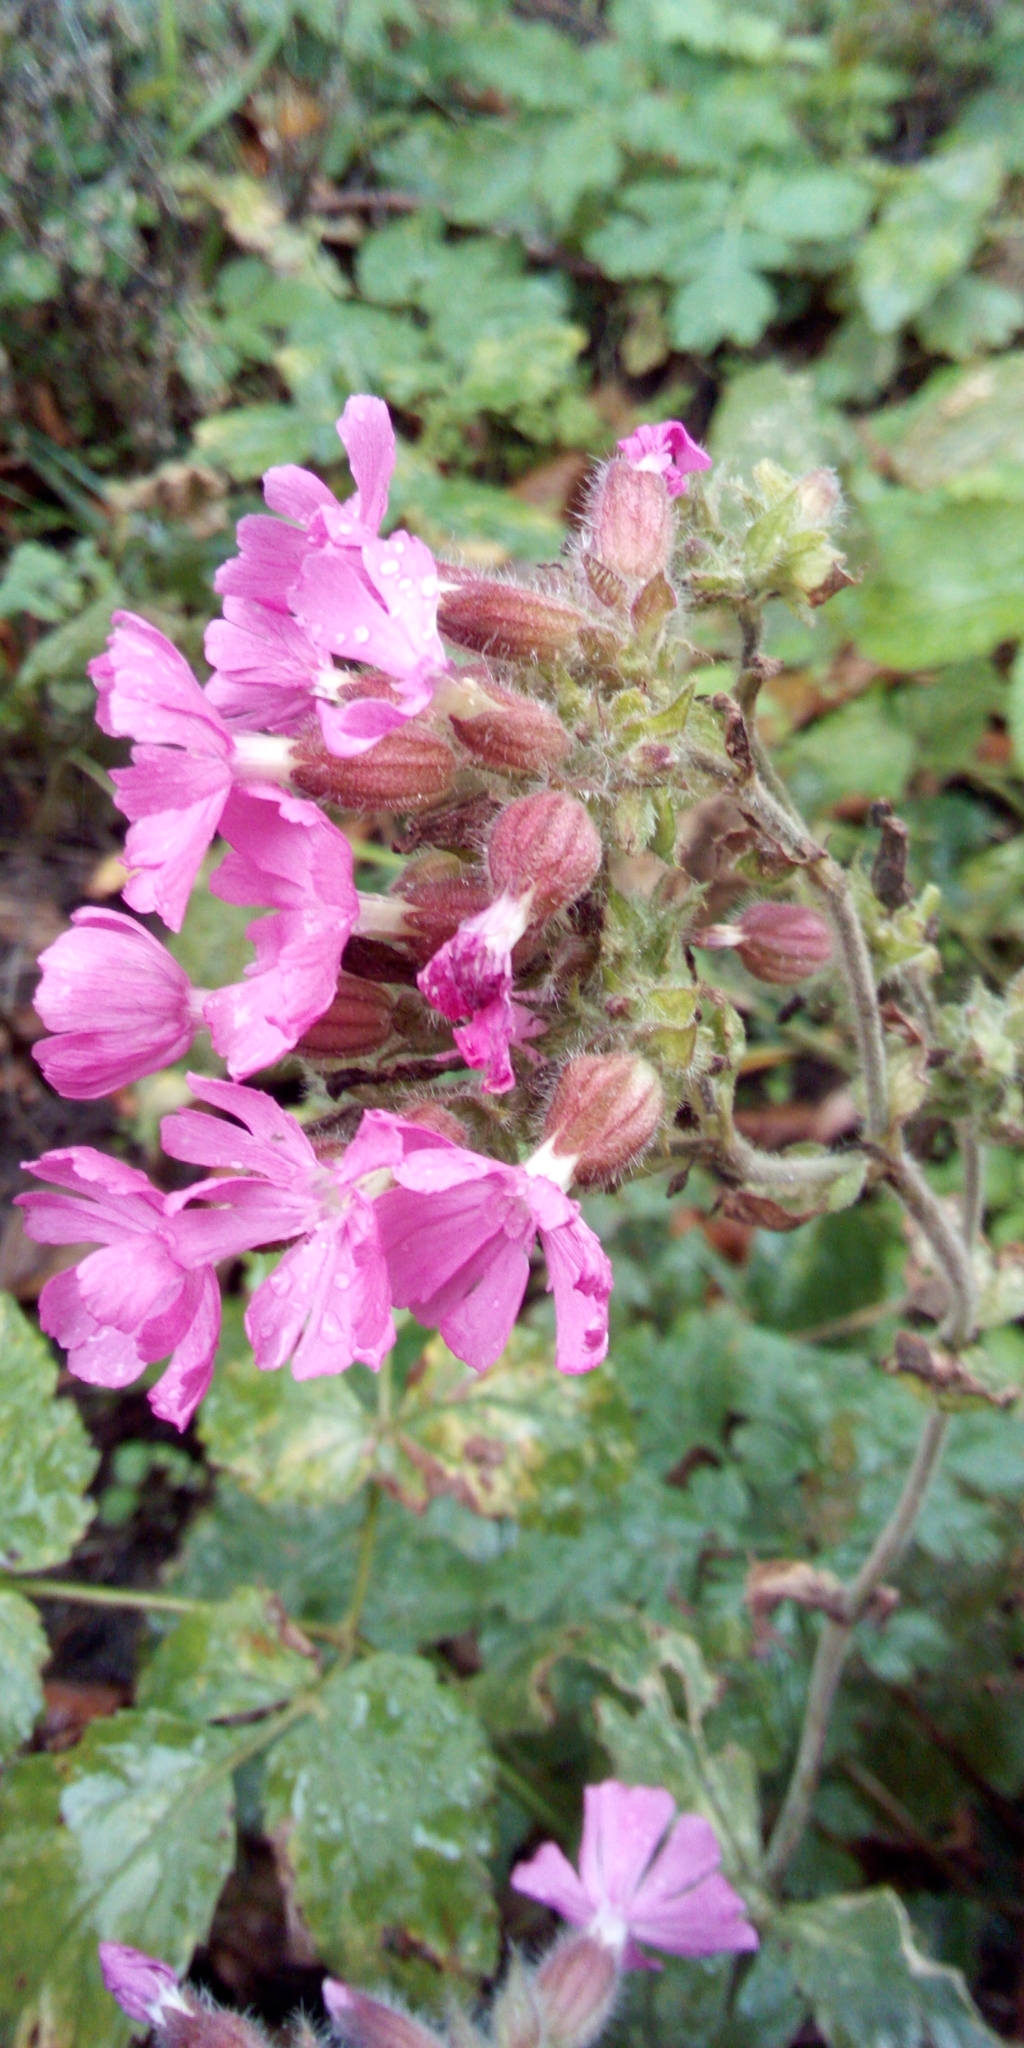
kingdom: Plantae
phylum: Tracheophyta
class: Magnoliopsida
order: Caryophyllales
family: Caryophyllaceae
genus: Silene
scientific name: Silene dioica
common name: Red campion
